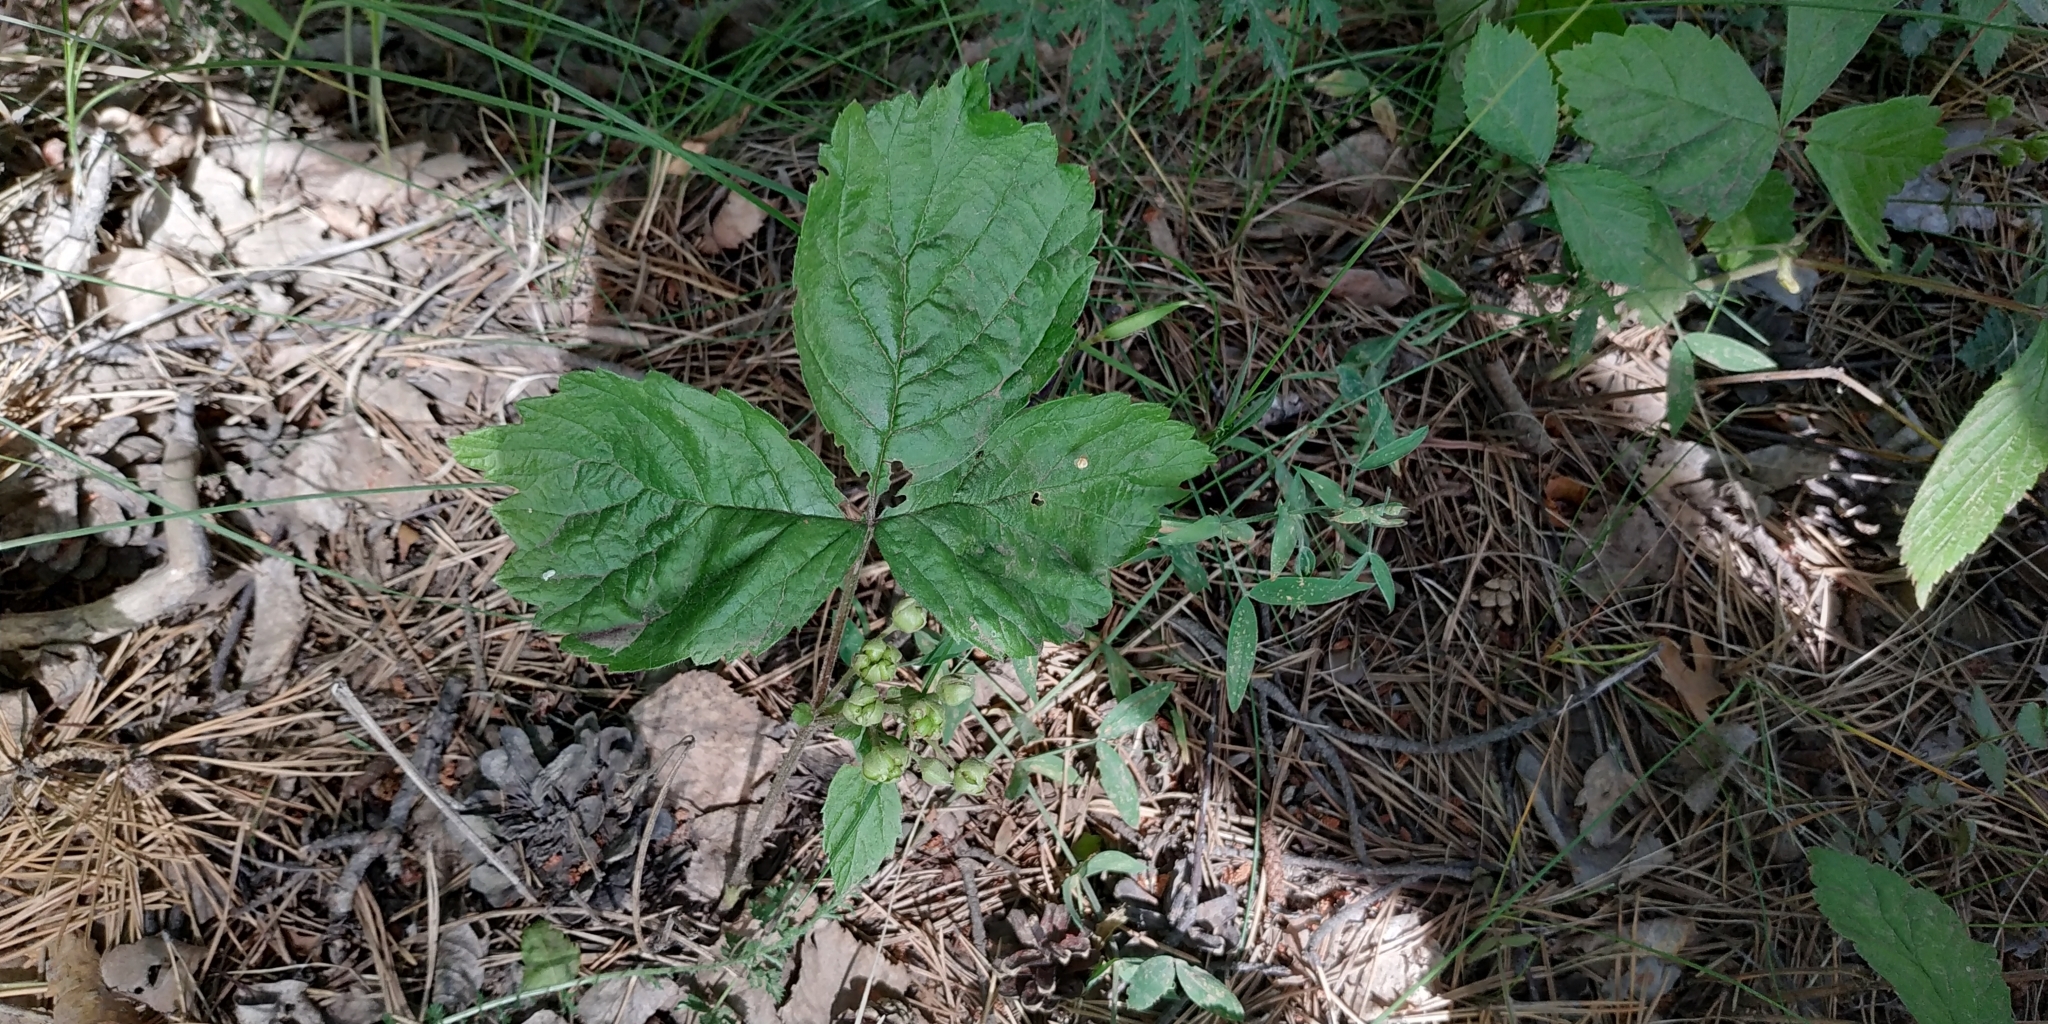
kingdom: Plantae
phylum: Tracheophyta
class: Magnoliopsida
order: Rosales
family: Rosaceae
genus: Rubus
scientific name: Rubus saxatilis
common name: Stone bramble
